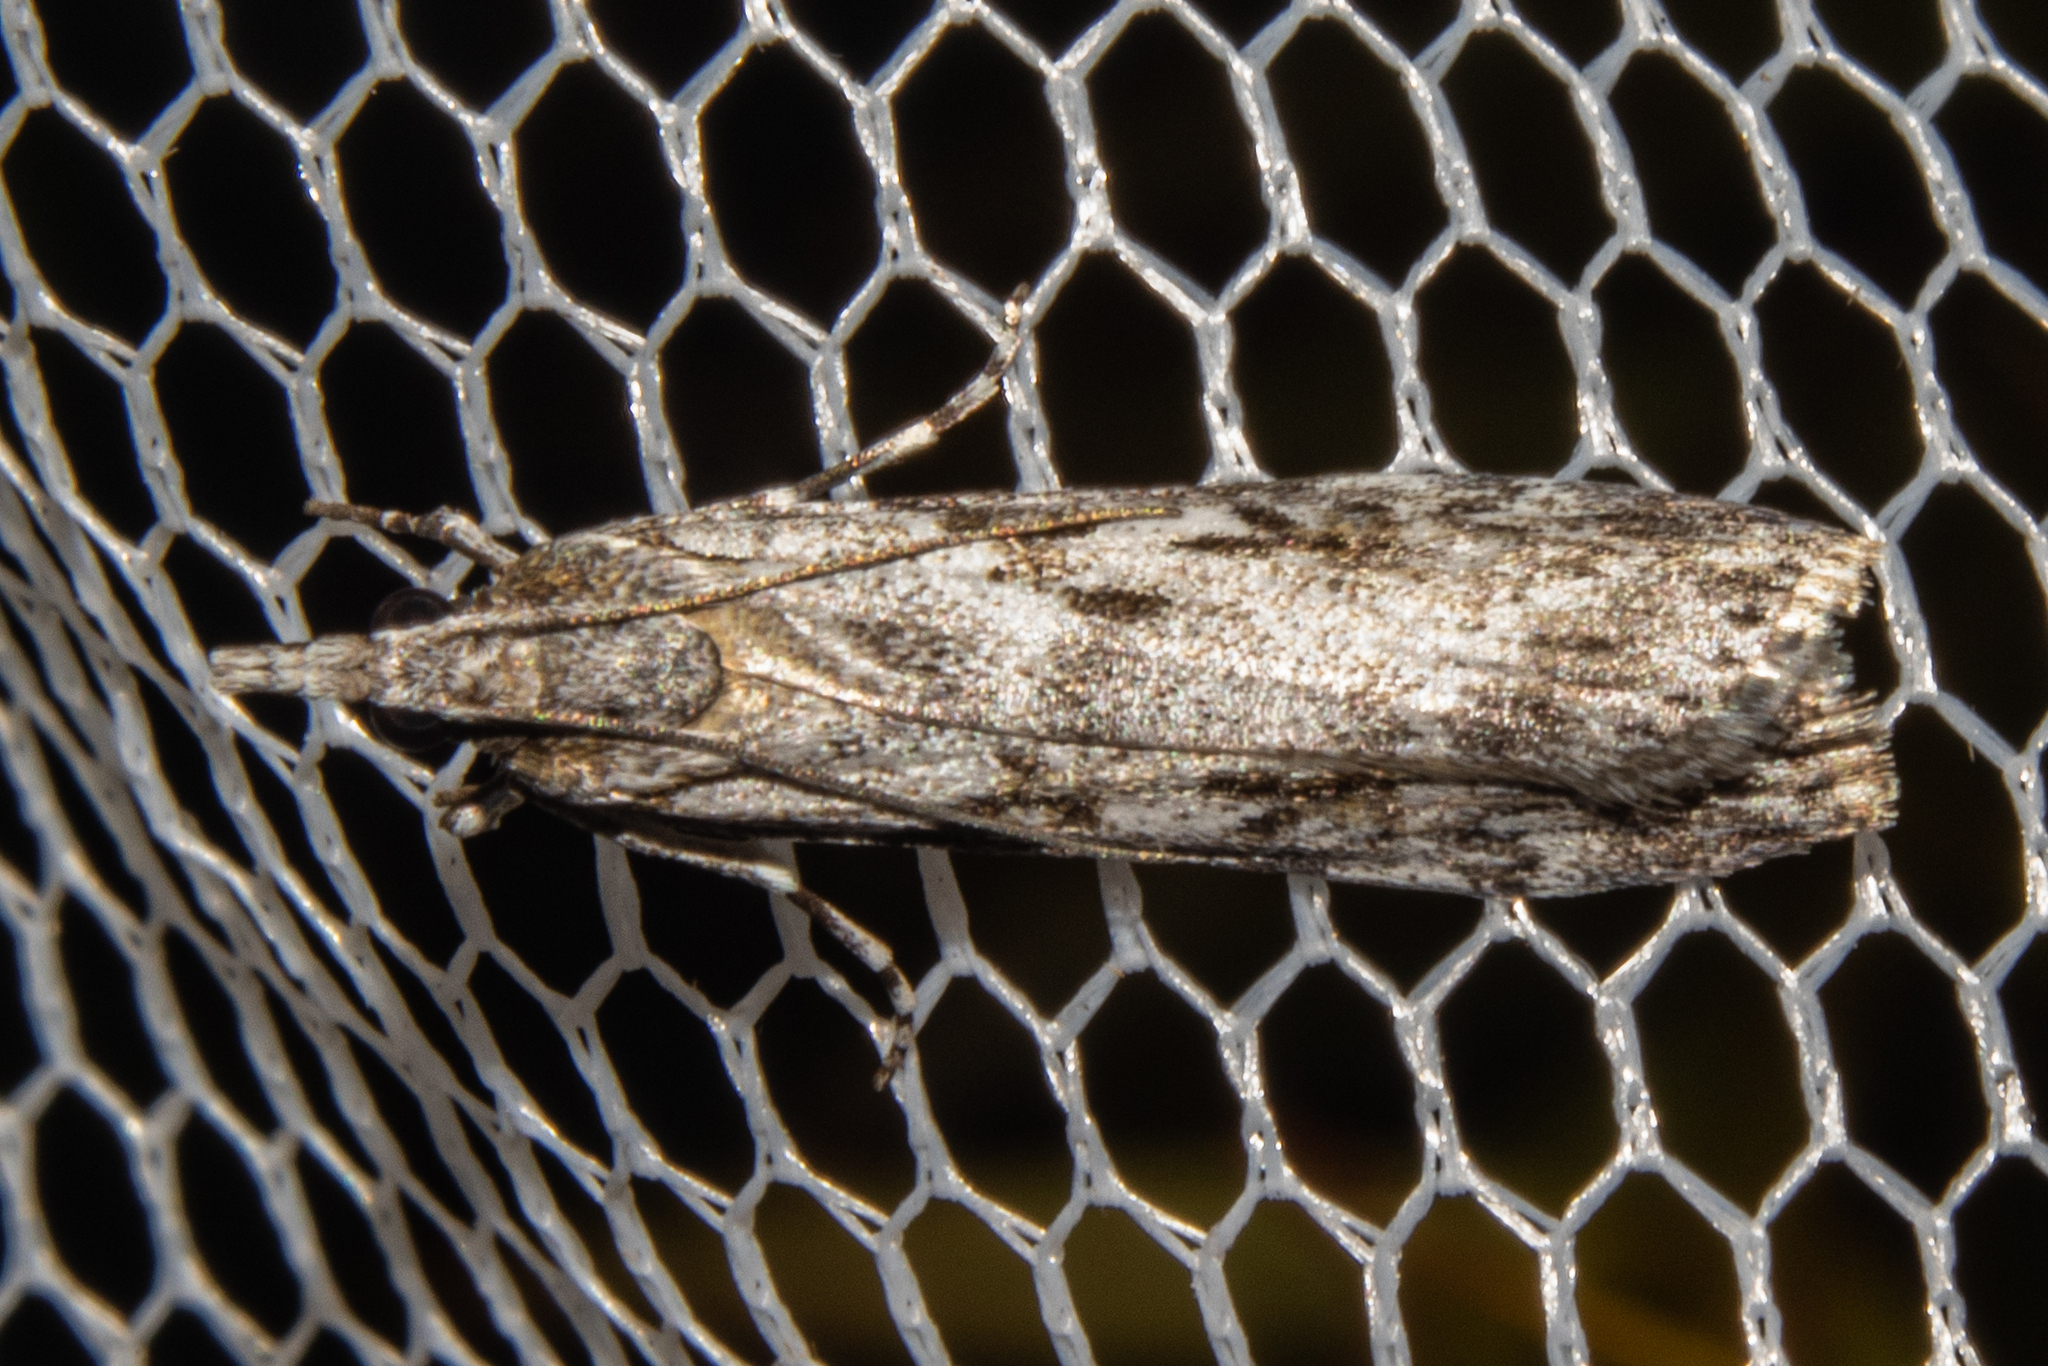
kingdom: Animalia
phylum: Arthropoda
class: Insecta
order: Lepidoptera
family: Crambidae
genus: Scoparia
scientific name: Scoparia halopis
